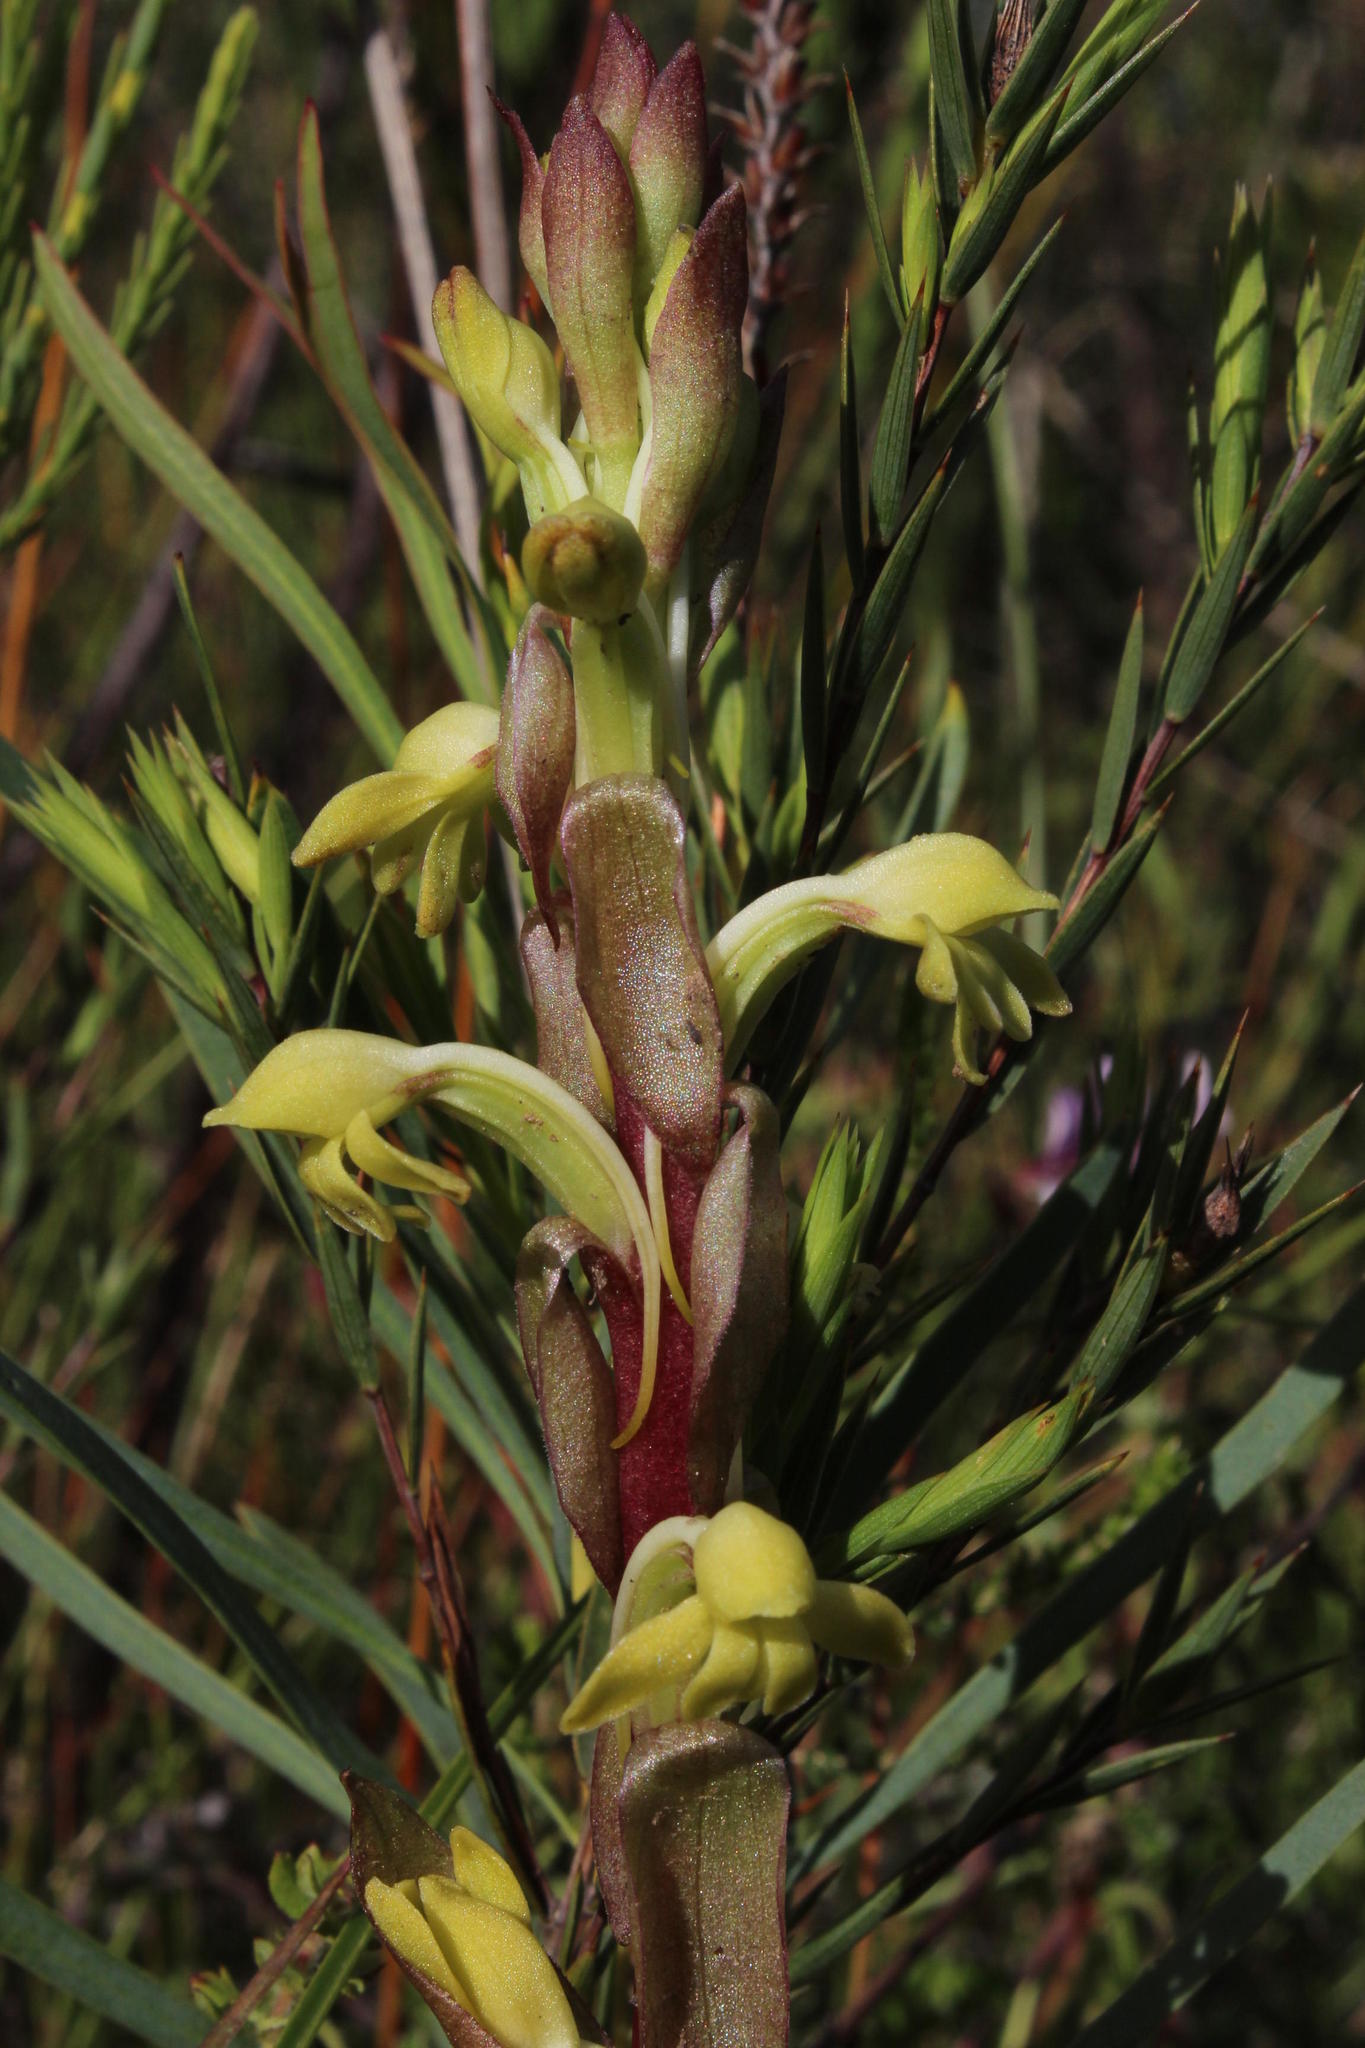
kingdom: Plantae
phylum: Tracheophyta
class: Liliopsida
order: Asparagales
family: Orchidaceae
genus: Satyrium
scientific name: Satyrium bicorne
